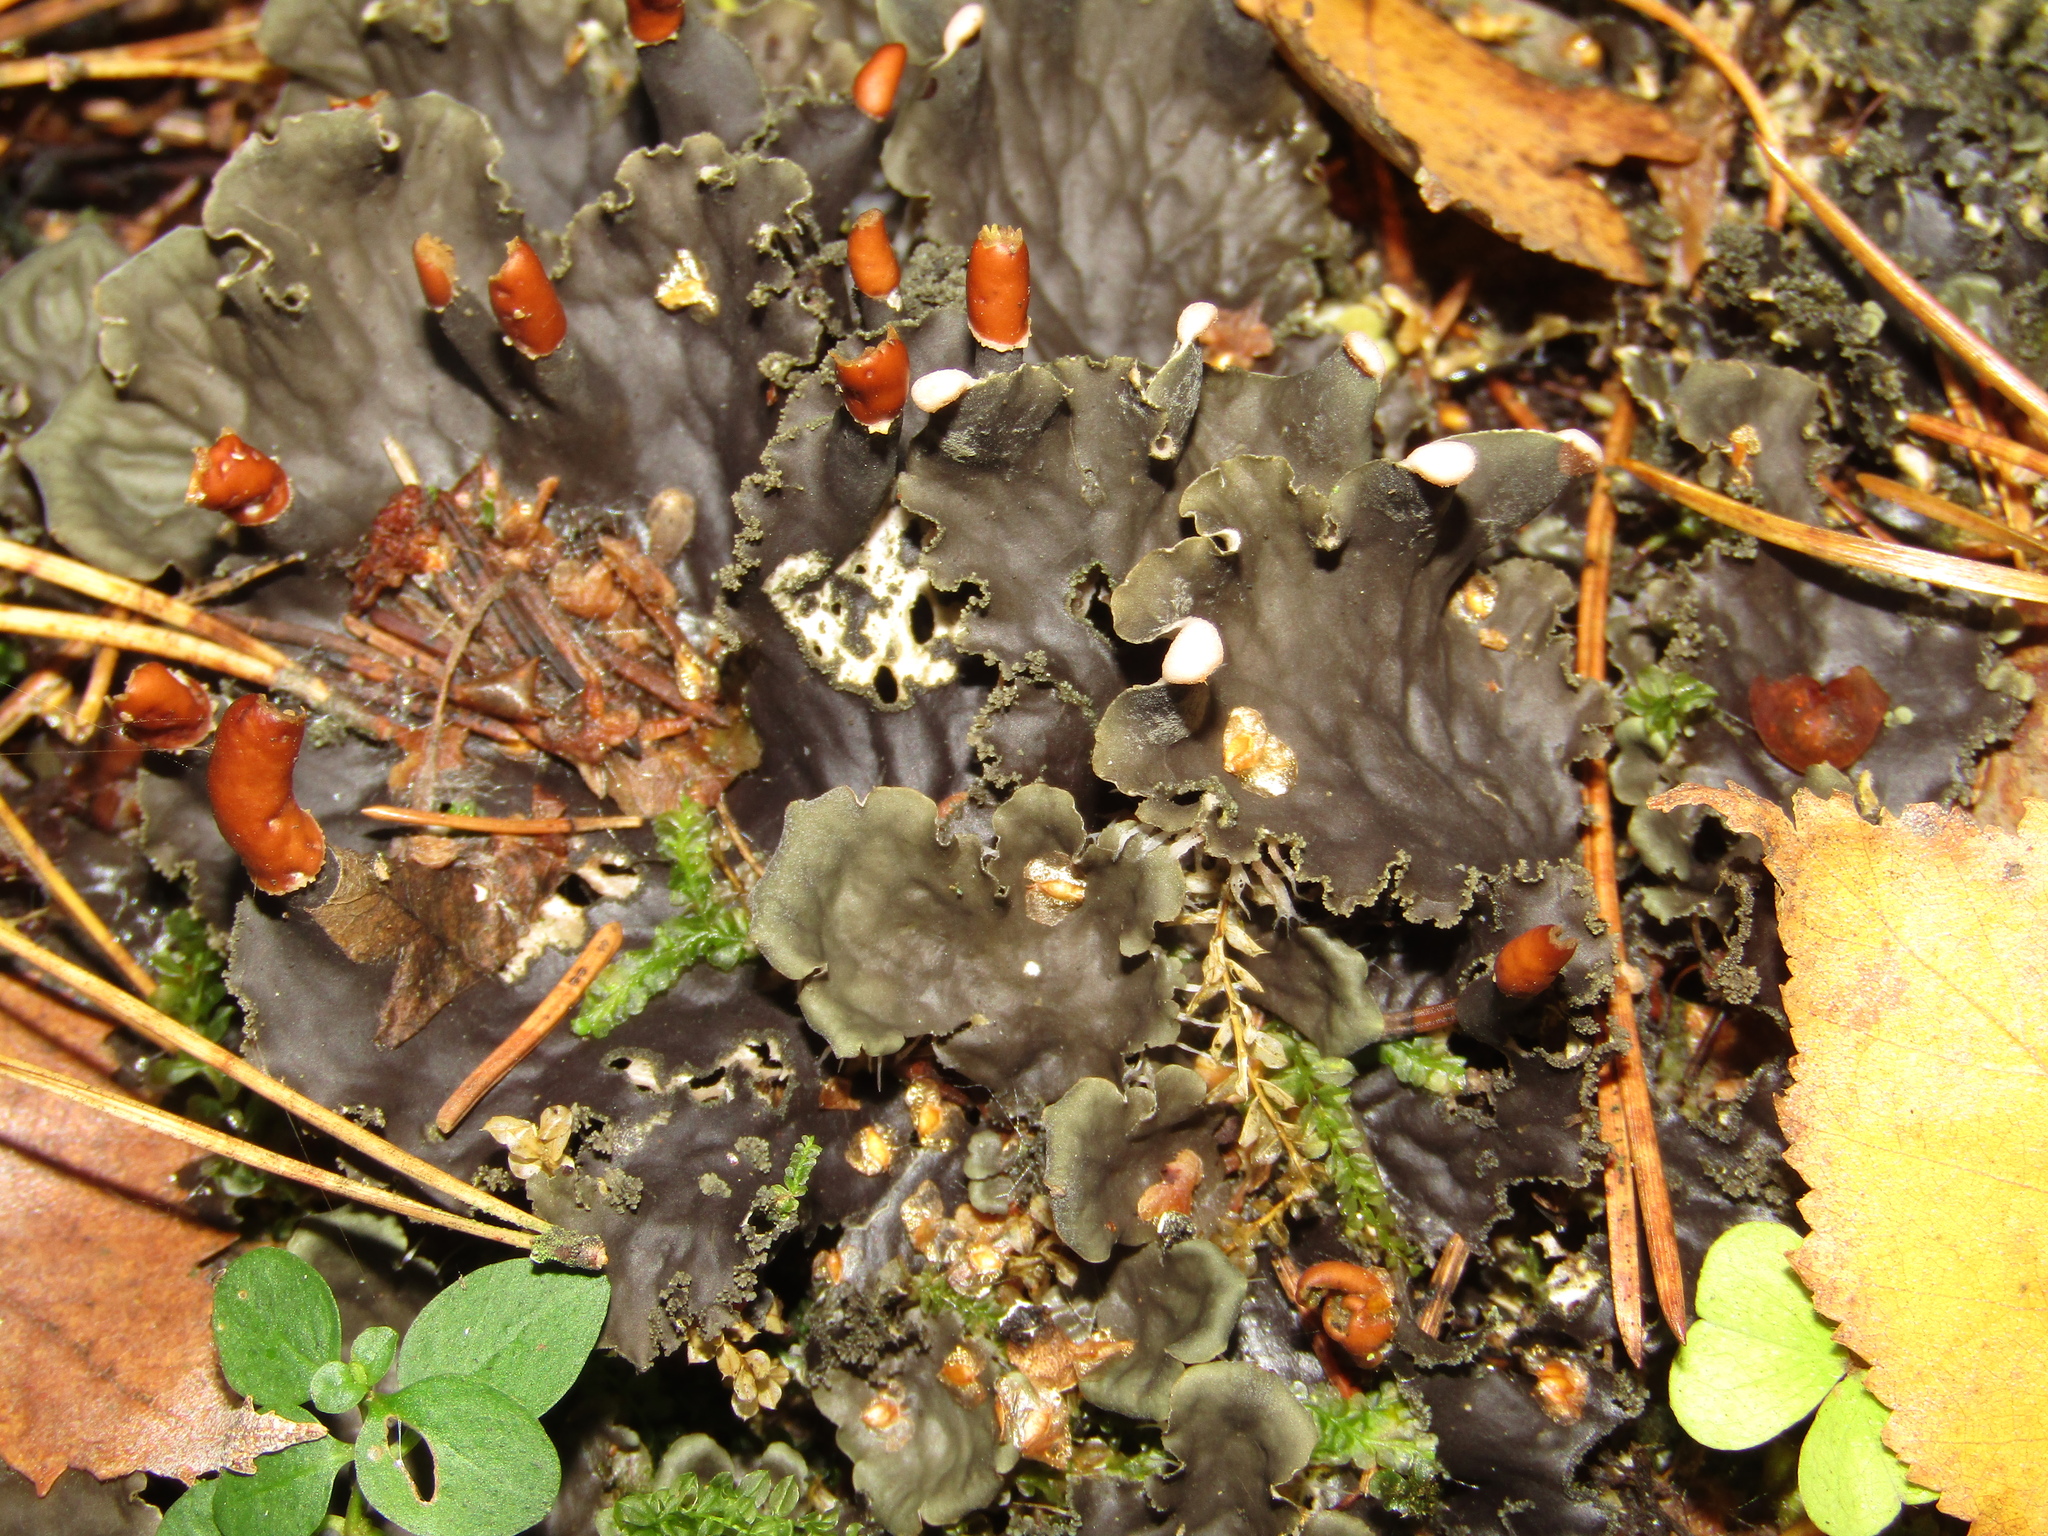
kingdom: Fungi
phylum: Ascomycota
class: Lecanoromycetes
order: Peltigerales
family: Peltigeraceae
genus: Peltigera
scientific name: Peltigera praetextata
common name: Scaly dog-lichen
